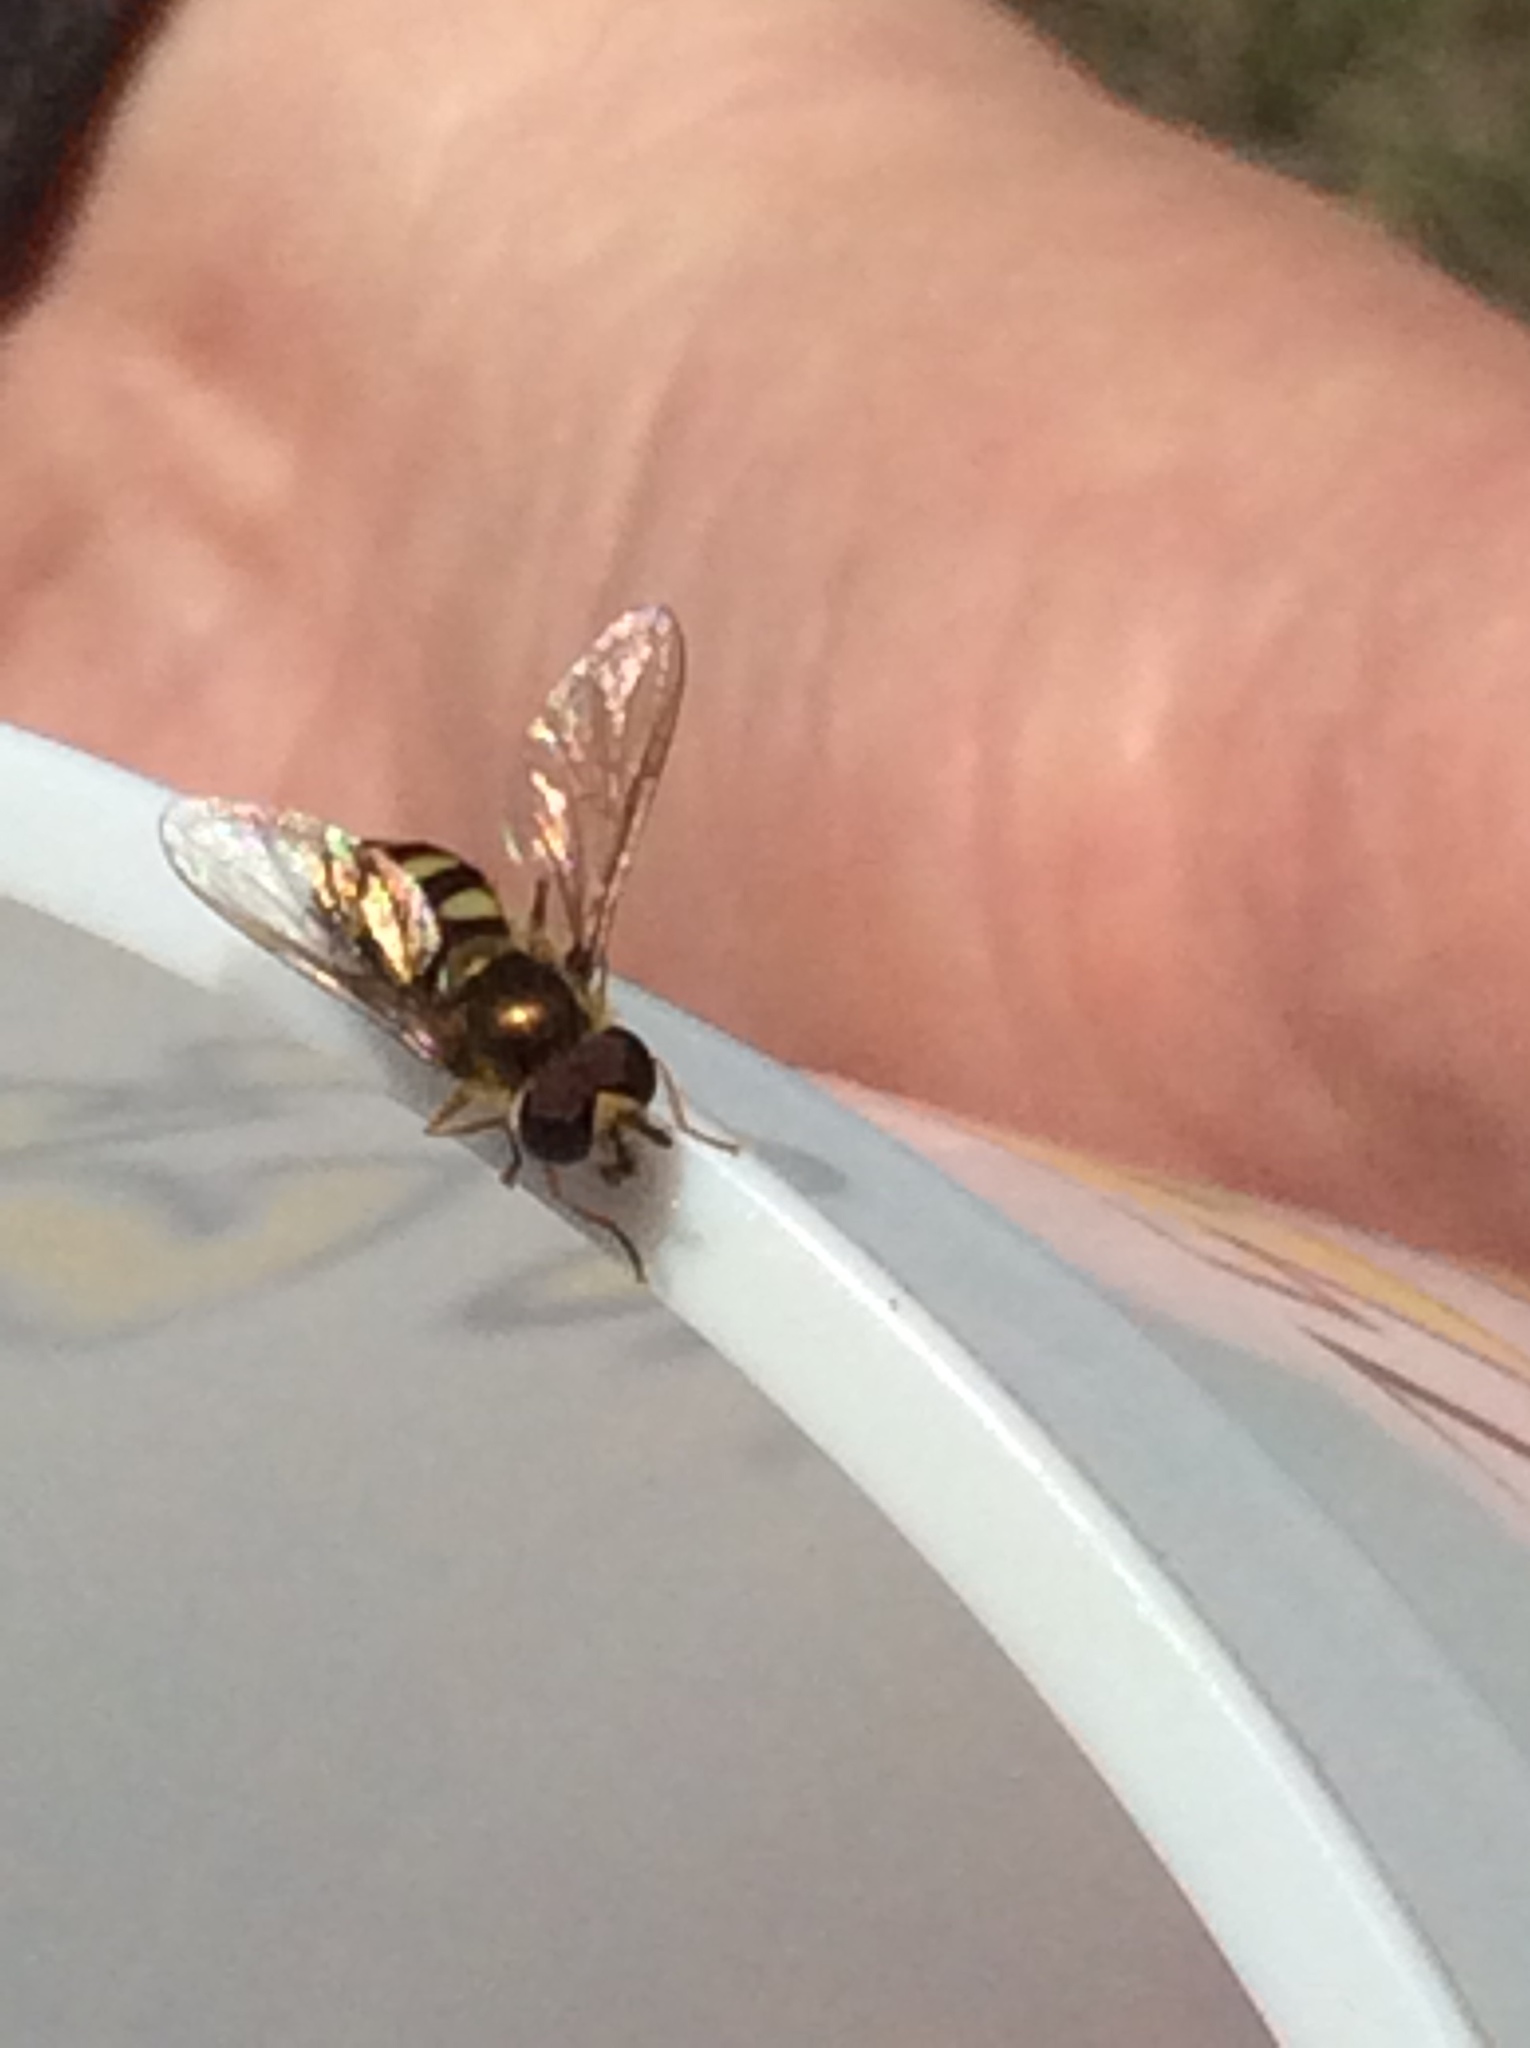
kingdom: Animalia
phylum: Arthropoda
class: Insecta
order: Diptera
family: Syrphidae
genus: Eupeodes
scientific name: Eupeodes
